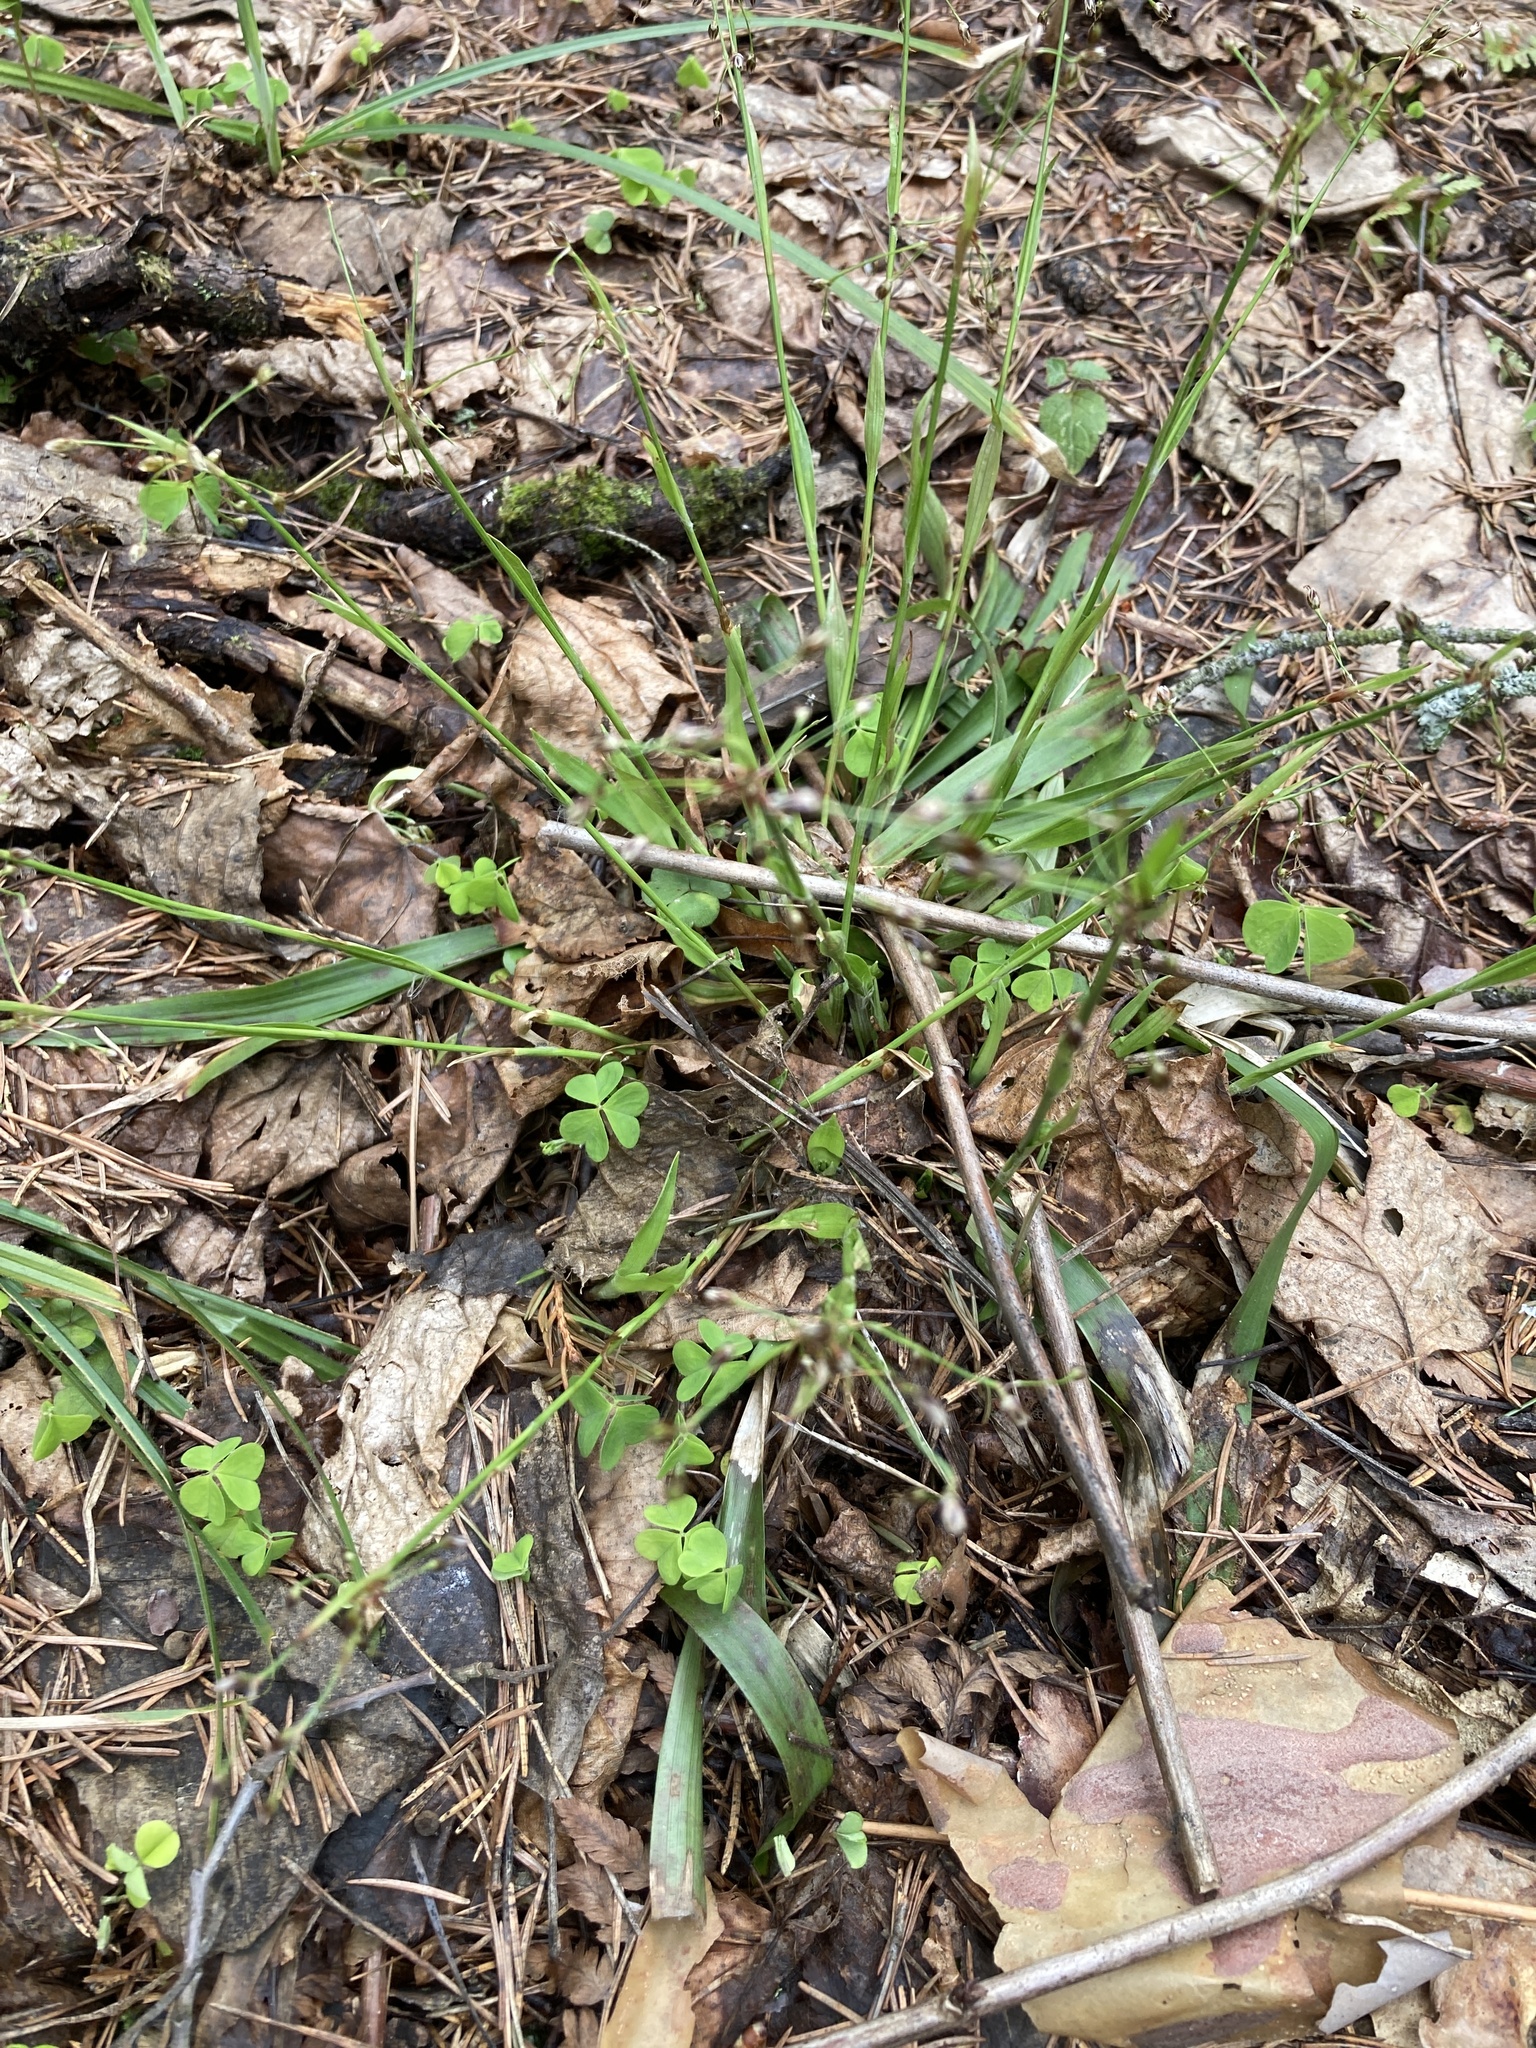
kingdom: Plantae
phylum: Tracheophyta
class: Liliopsida
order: Poales
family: Juncaceae
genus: Luzula
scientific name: Luzula pilosa
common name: Hairy wood-rush
